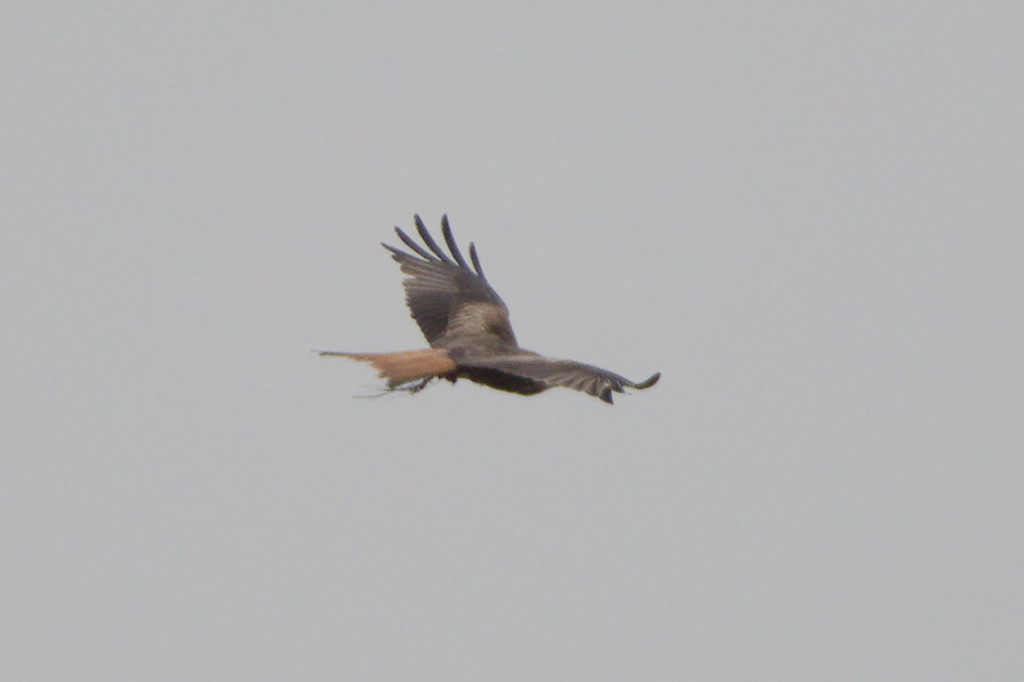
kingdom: Animalia
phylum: Chordata
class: Aves
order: Accipitriformes
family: Accipitridae
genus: Milvus
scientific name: Milvus milvus
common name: Red kite
